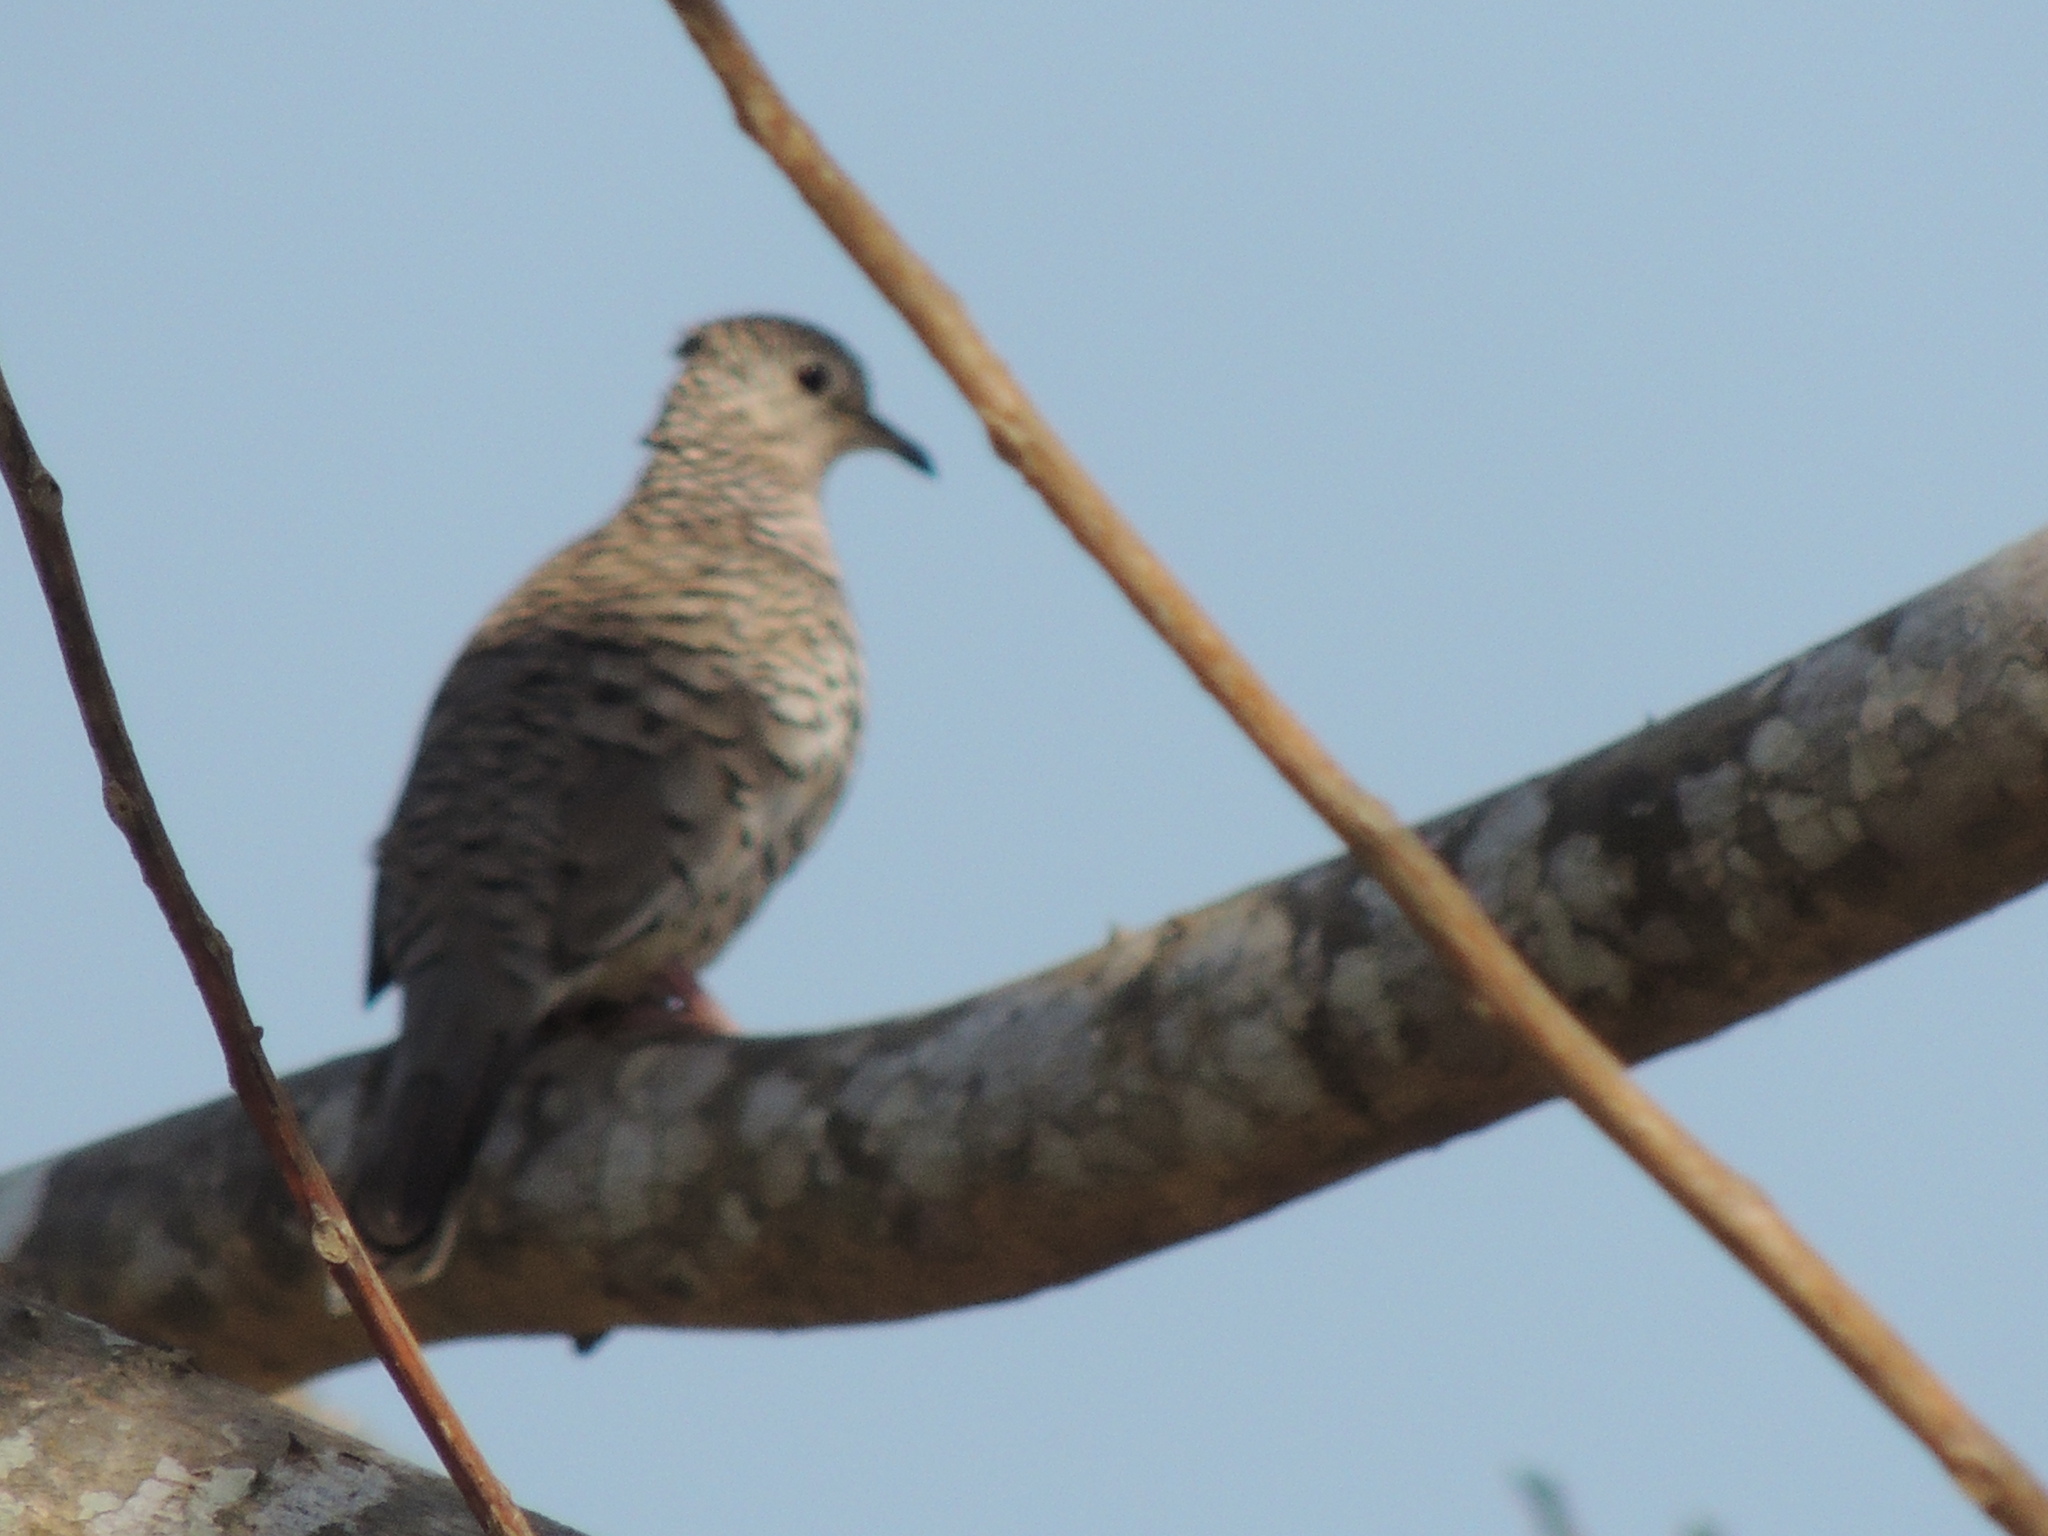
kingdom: Animalia
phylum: Chordata
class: Aves
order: Columbiformes
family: Columbidae
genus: Columbina
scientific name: Columbina squammata
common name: Scaled dove
